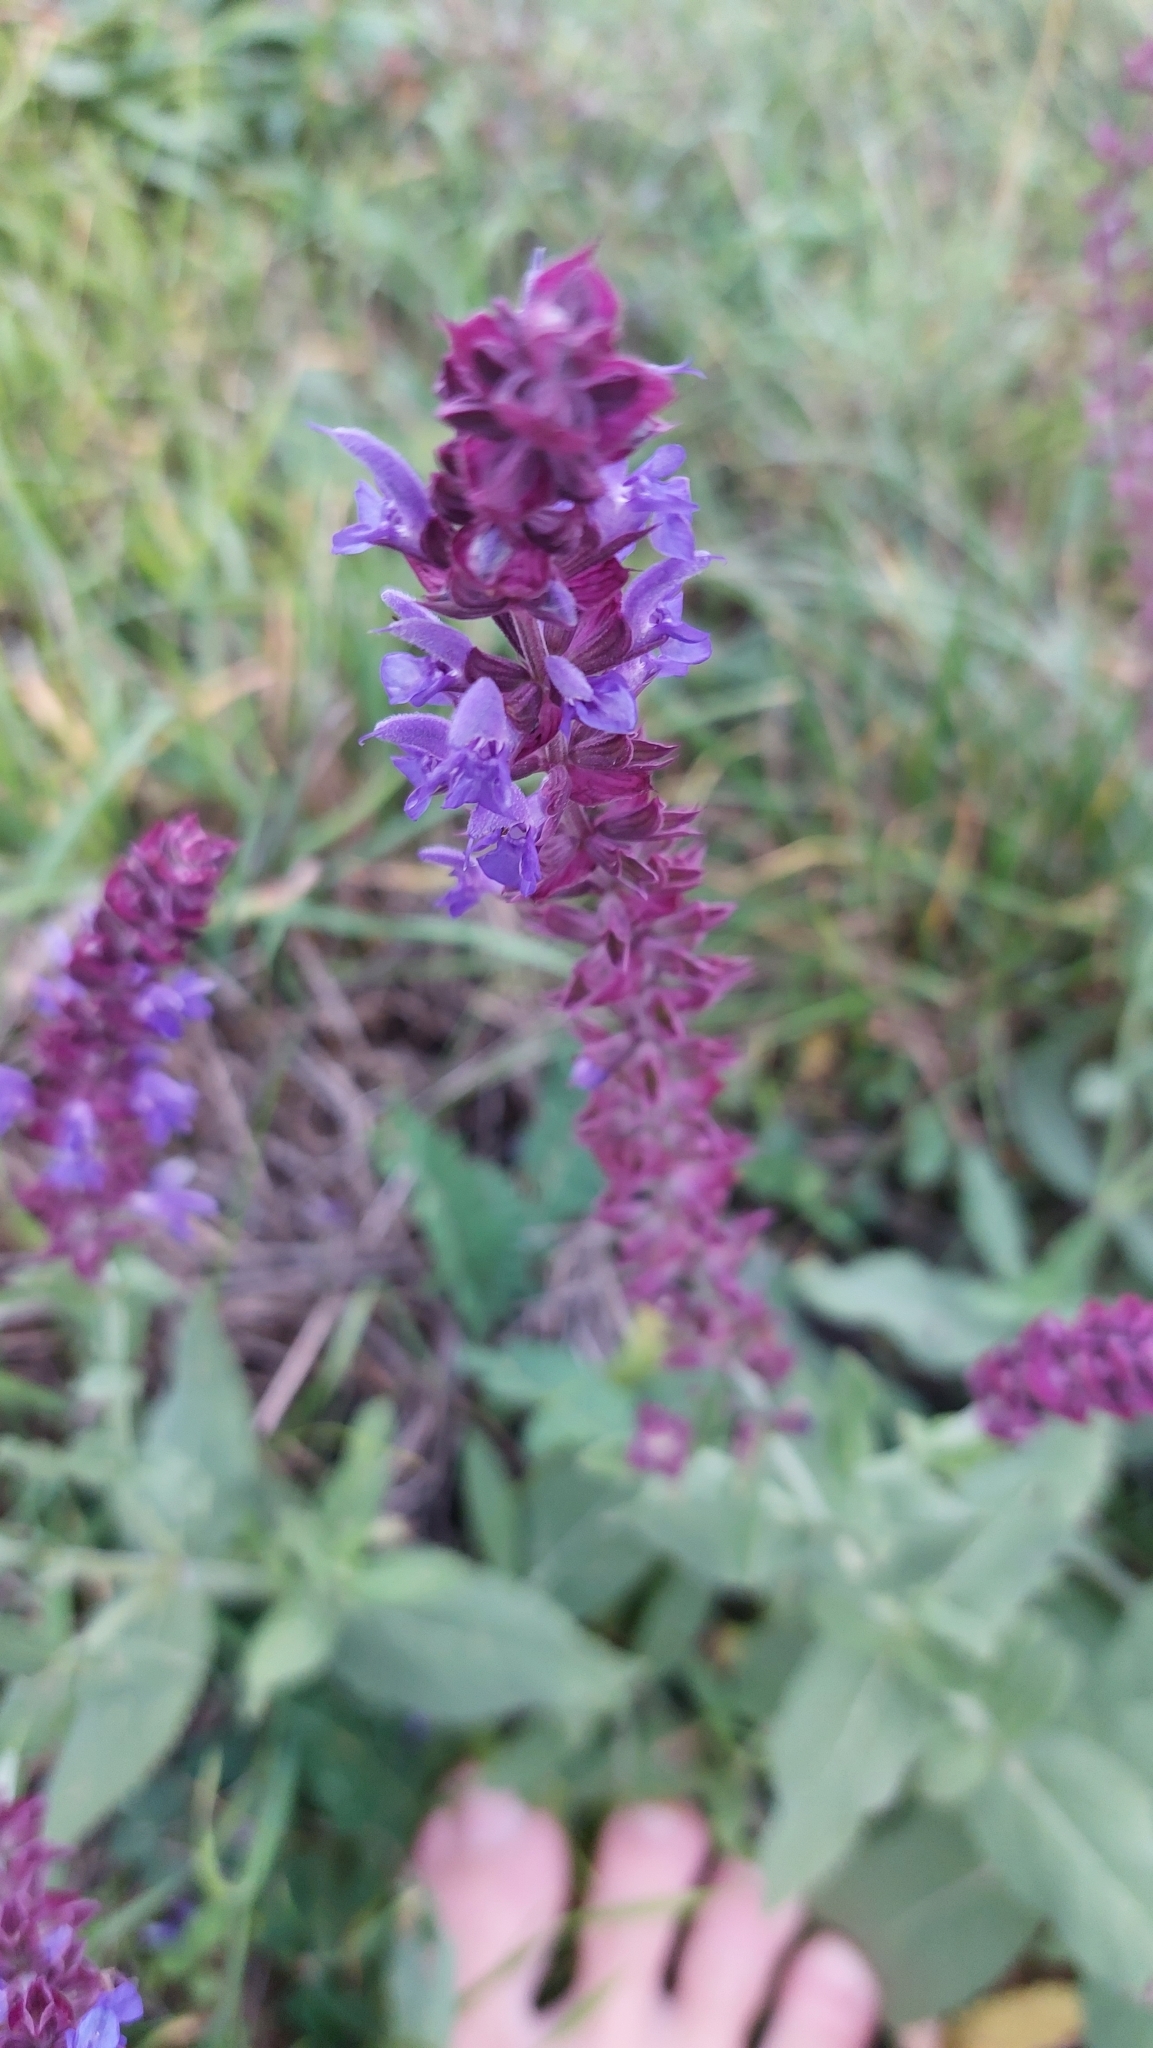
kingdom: Plantae
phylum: Tracheophyta
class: Magnoliopsida
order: Lamiales
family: Lamiaceae
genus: Salvia
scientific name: Salvia nemorosa
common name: Balkan clary
